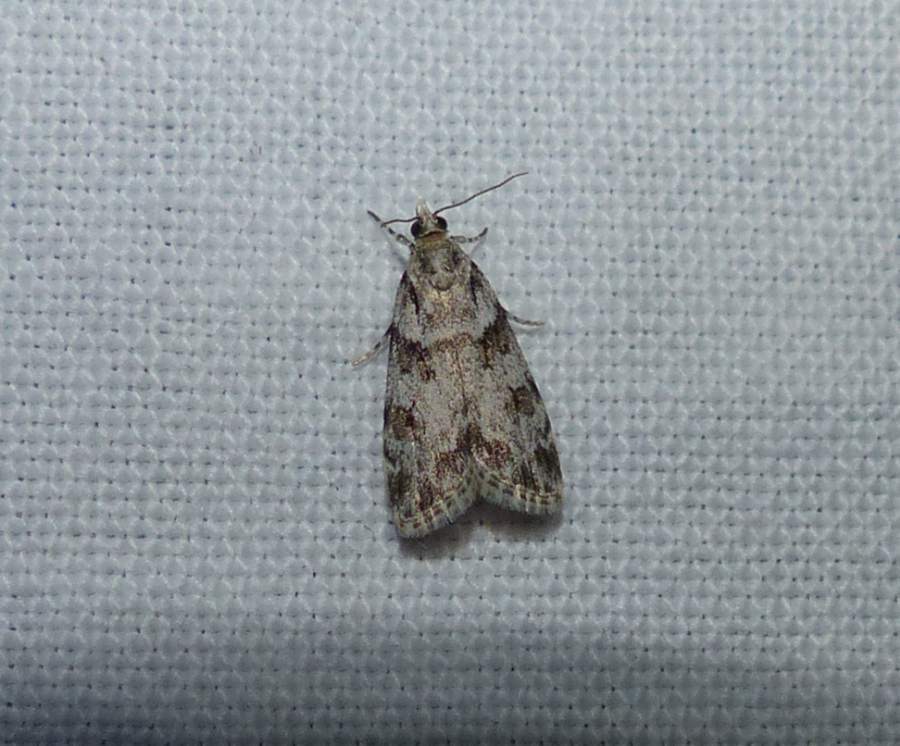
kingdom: Animalia
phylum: Arthropoda
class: Insecta
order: Lepidoptera
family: Crambidae
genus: Scoparia
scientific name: Scoparia biplagialis
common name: Double-striped scoparia moth
